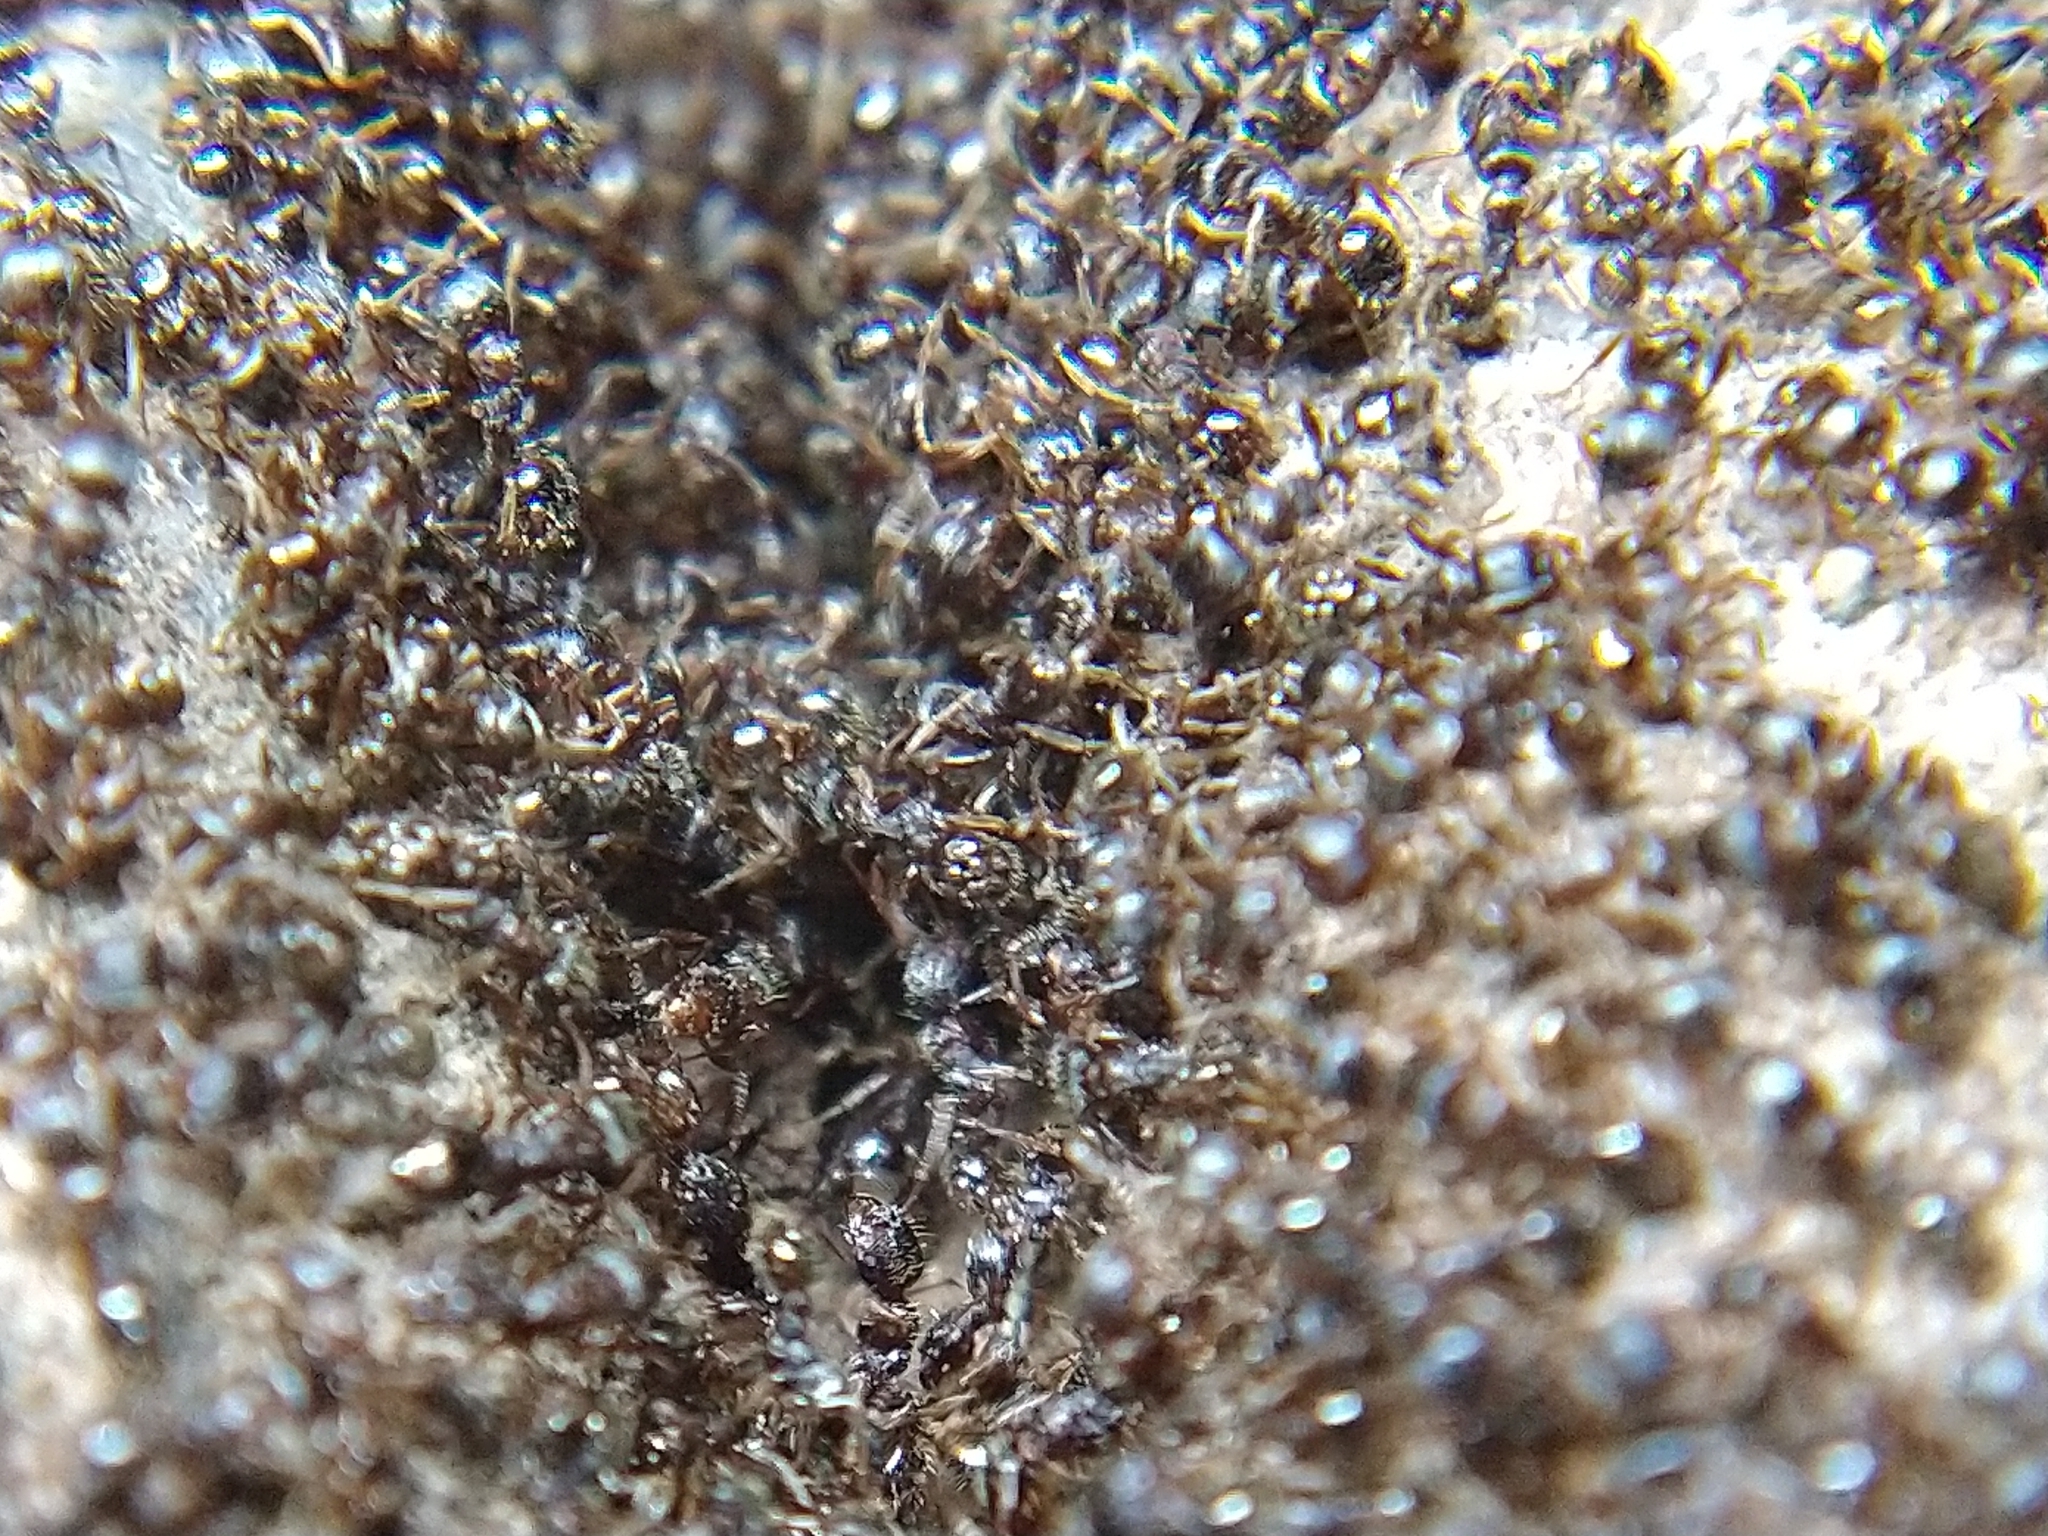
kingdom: Animalia
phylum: Arthropoda
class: Insecta
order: Hymenoptera
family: Formicidae
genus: Tetramorium
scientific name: Tetramorium immigrans
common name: Pavement ant
